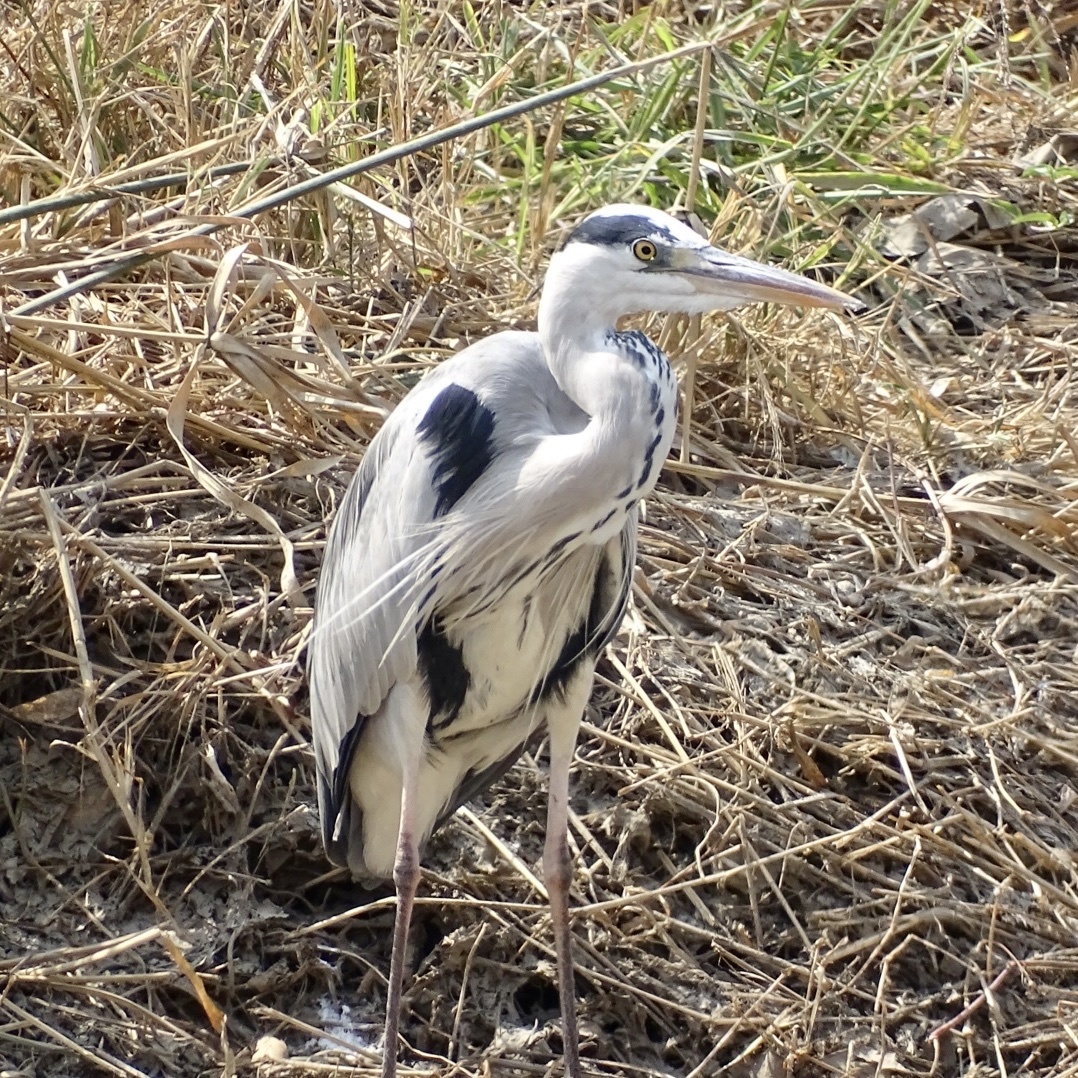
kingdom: Animalia
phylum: Chordata
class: Aves
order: Pelecaniformes
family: Ardeidae
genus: Ardea
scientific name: Ardea cinerea
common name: Grey heron
